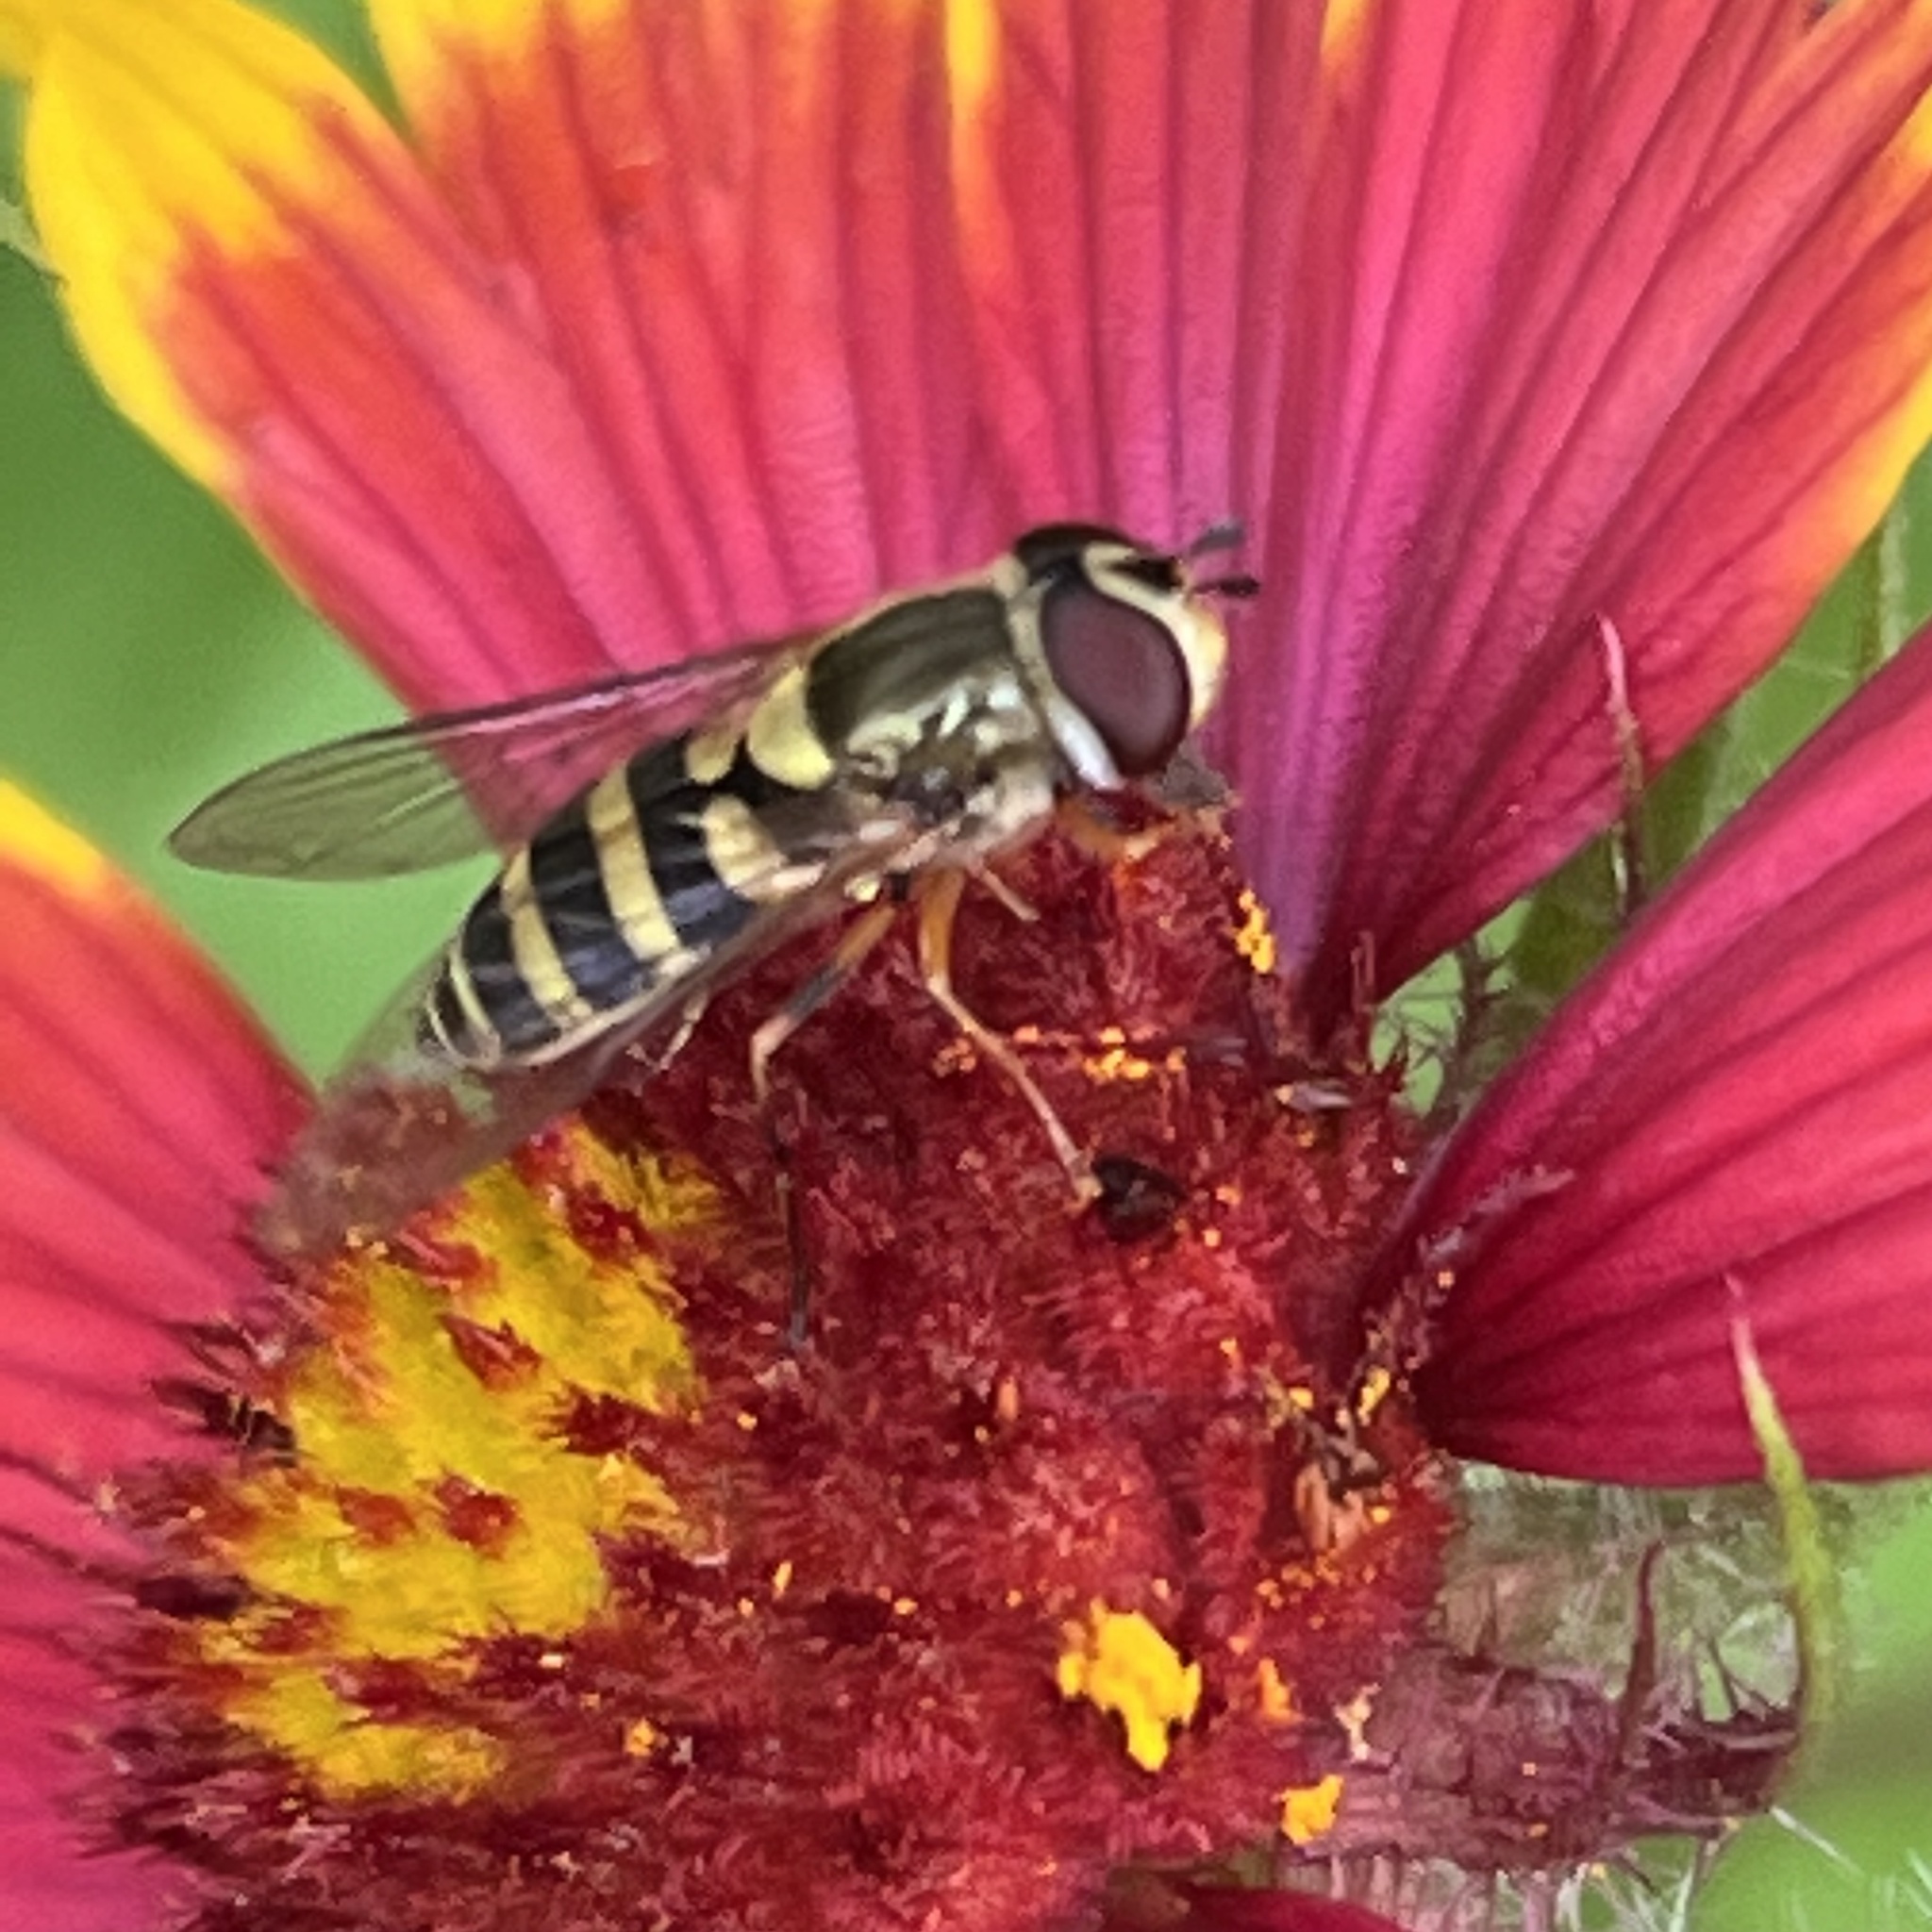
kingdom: Animalia
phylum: Arthropoda
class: Insecta
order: Diptera
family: Syrphidae
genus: Syrphus
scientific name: Syrphus rectus
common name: Yellow-legged flower fly
